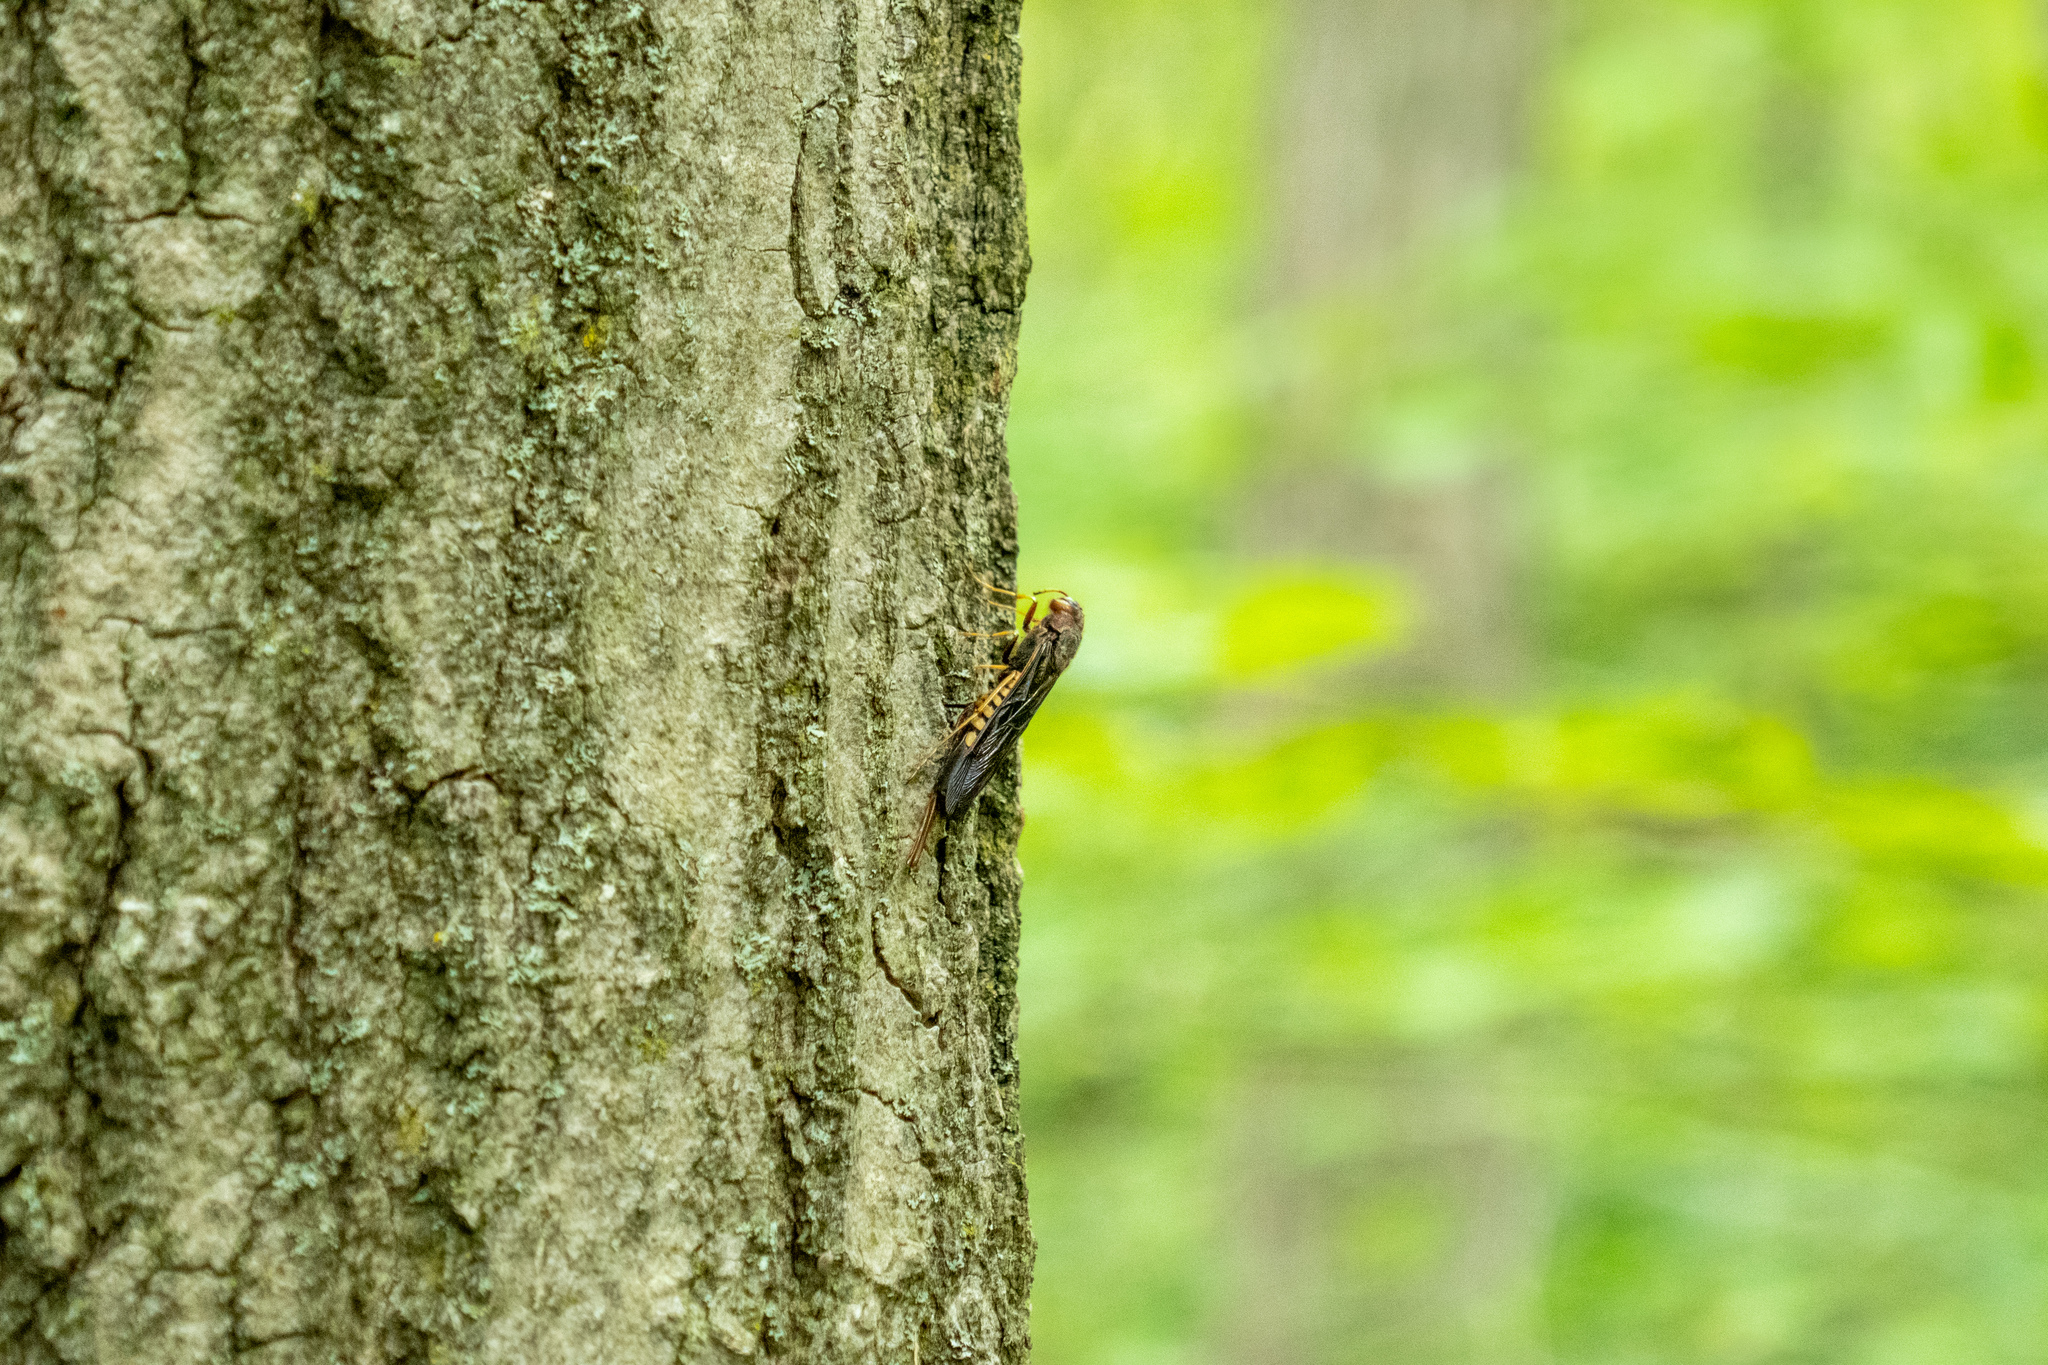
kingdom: Animalia
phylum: Arthropoda
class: Insecta
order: Hymenoptera
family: Siricidae
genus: Tremex
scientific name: Tremex columba
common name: Wasp
